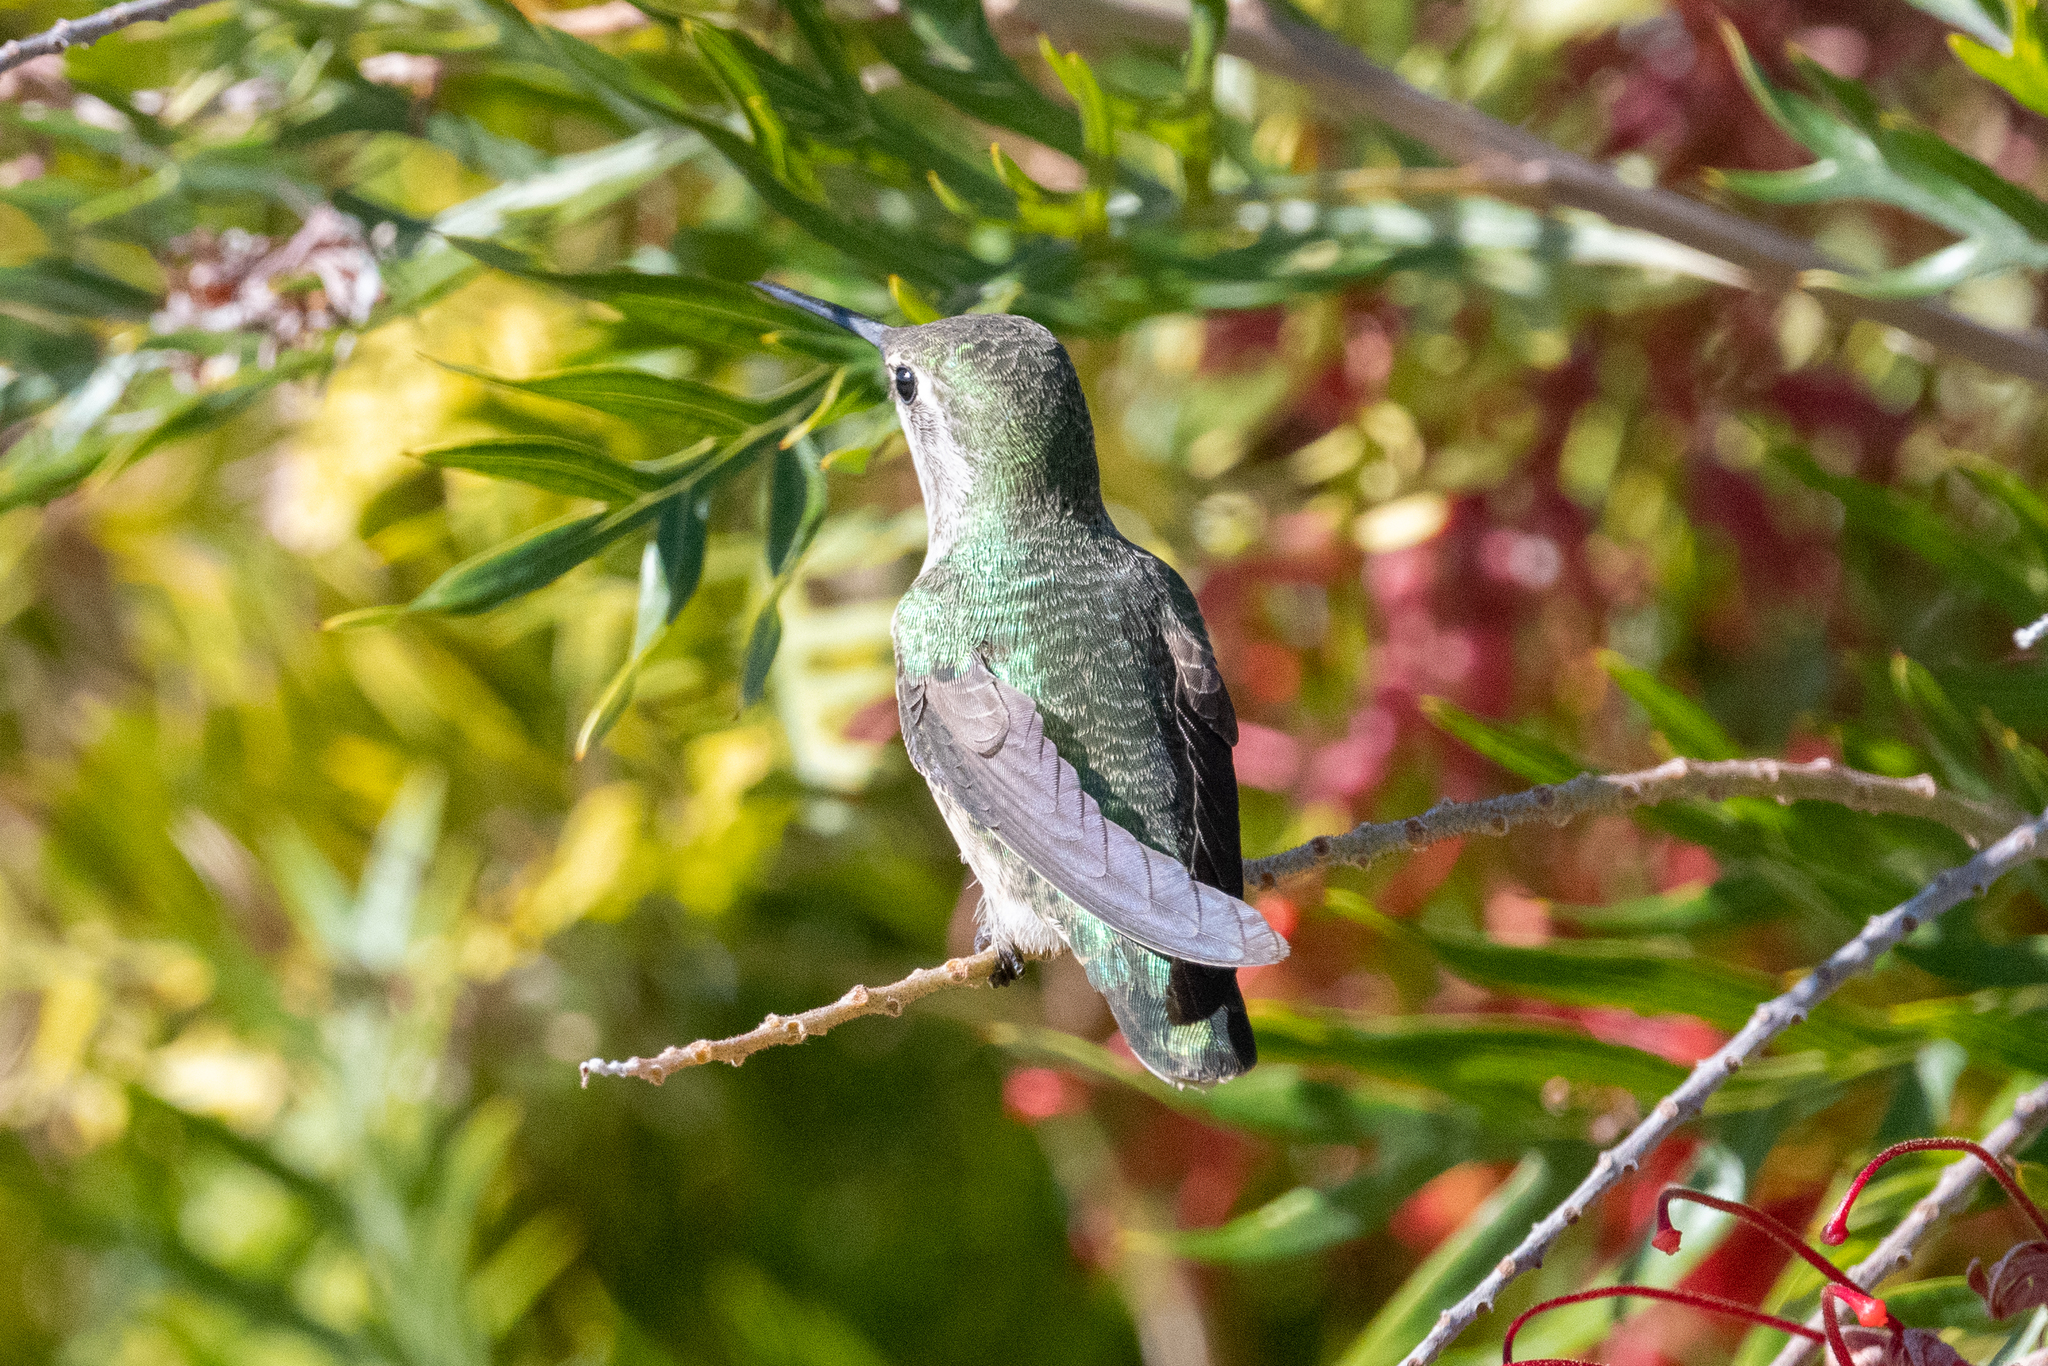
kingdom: Animalia
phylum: Chordata
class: Aves
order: Apodiformes
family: Trochilidae
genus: Calypte
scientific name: Calypte anna
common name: Anna's hummingbird
